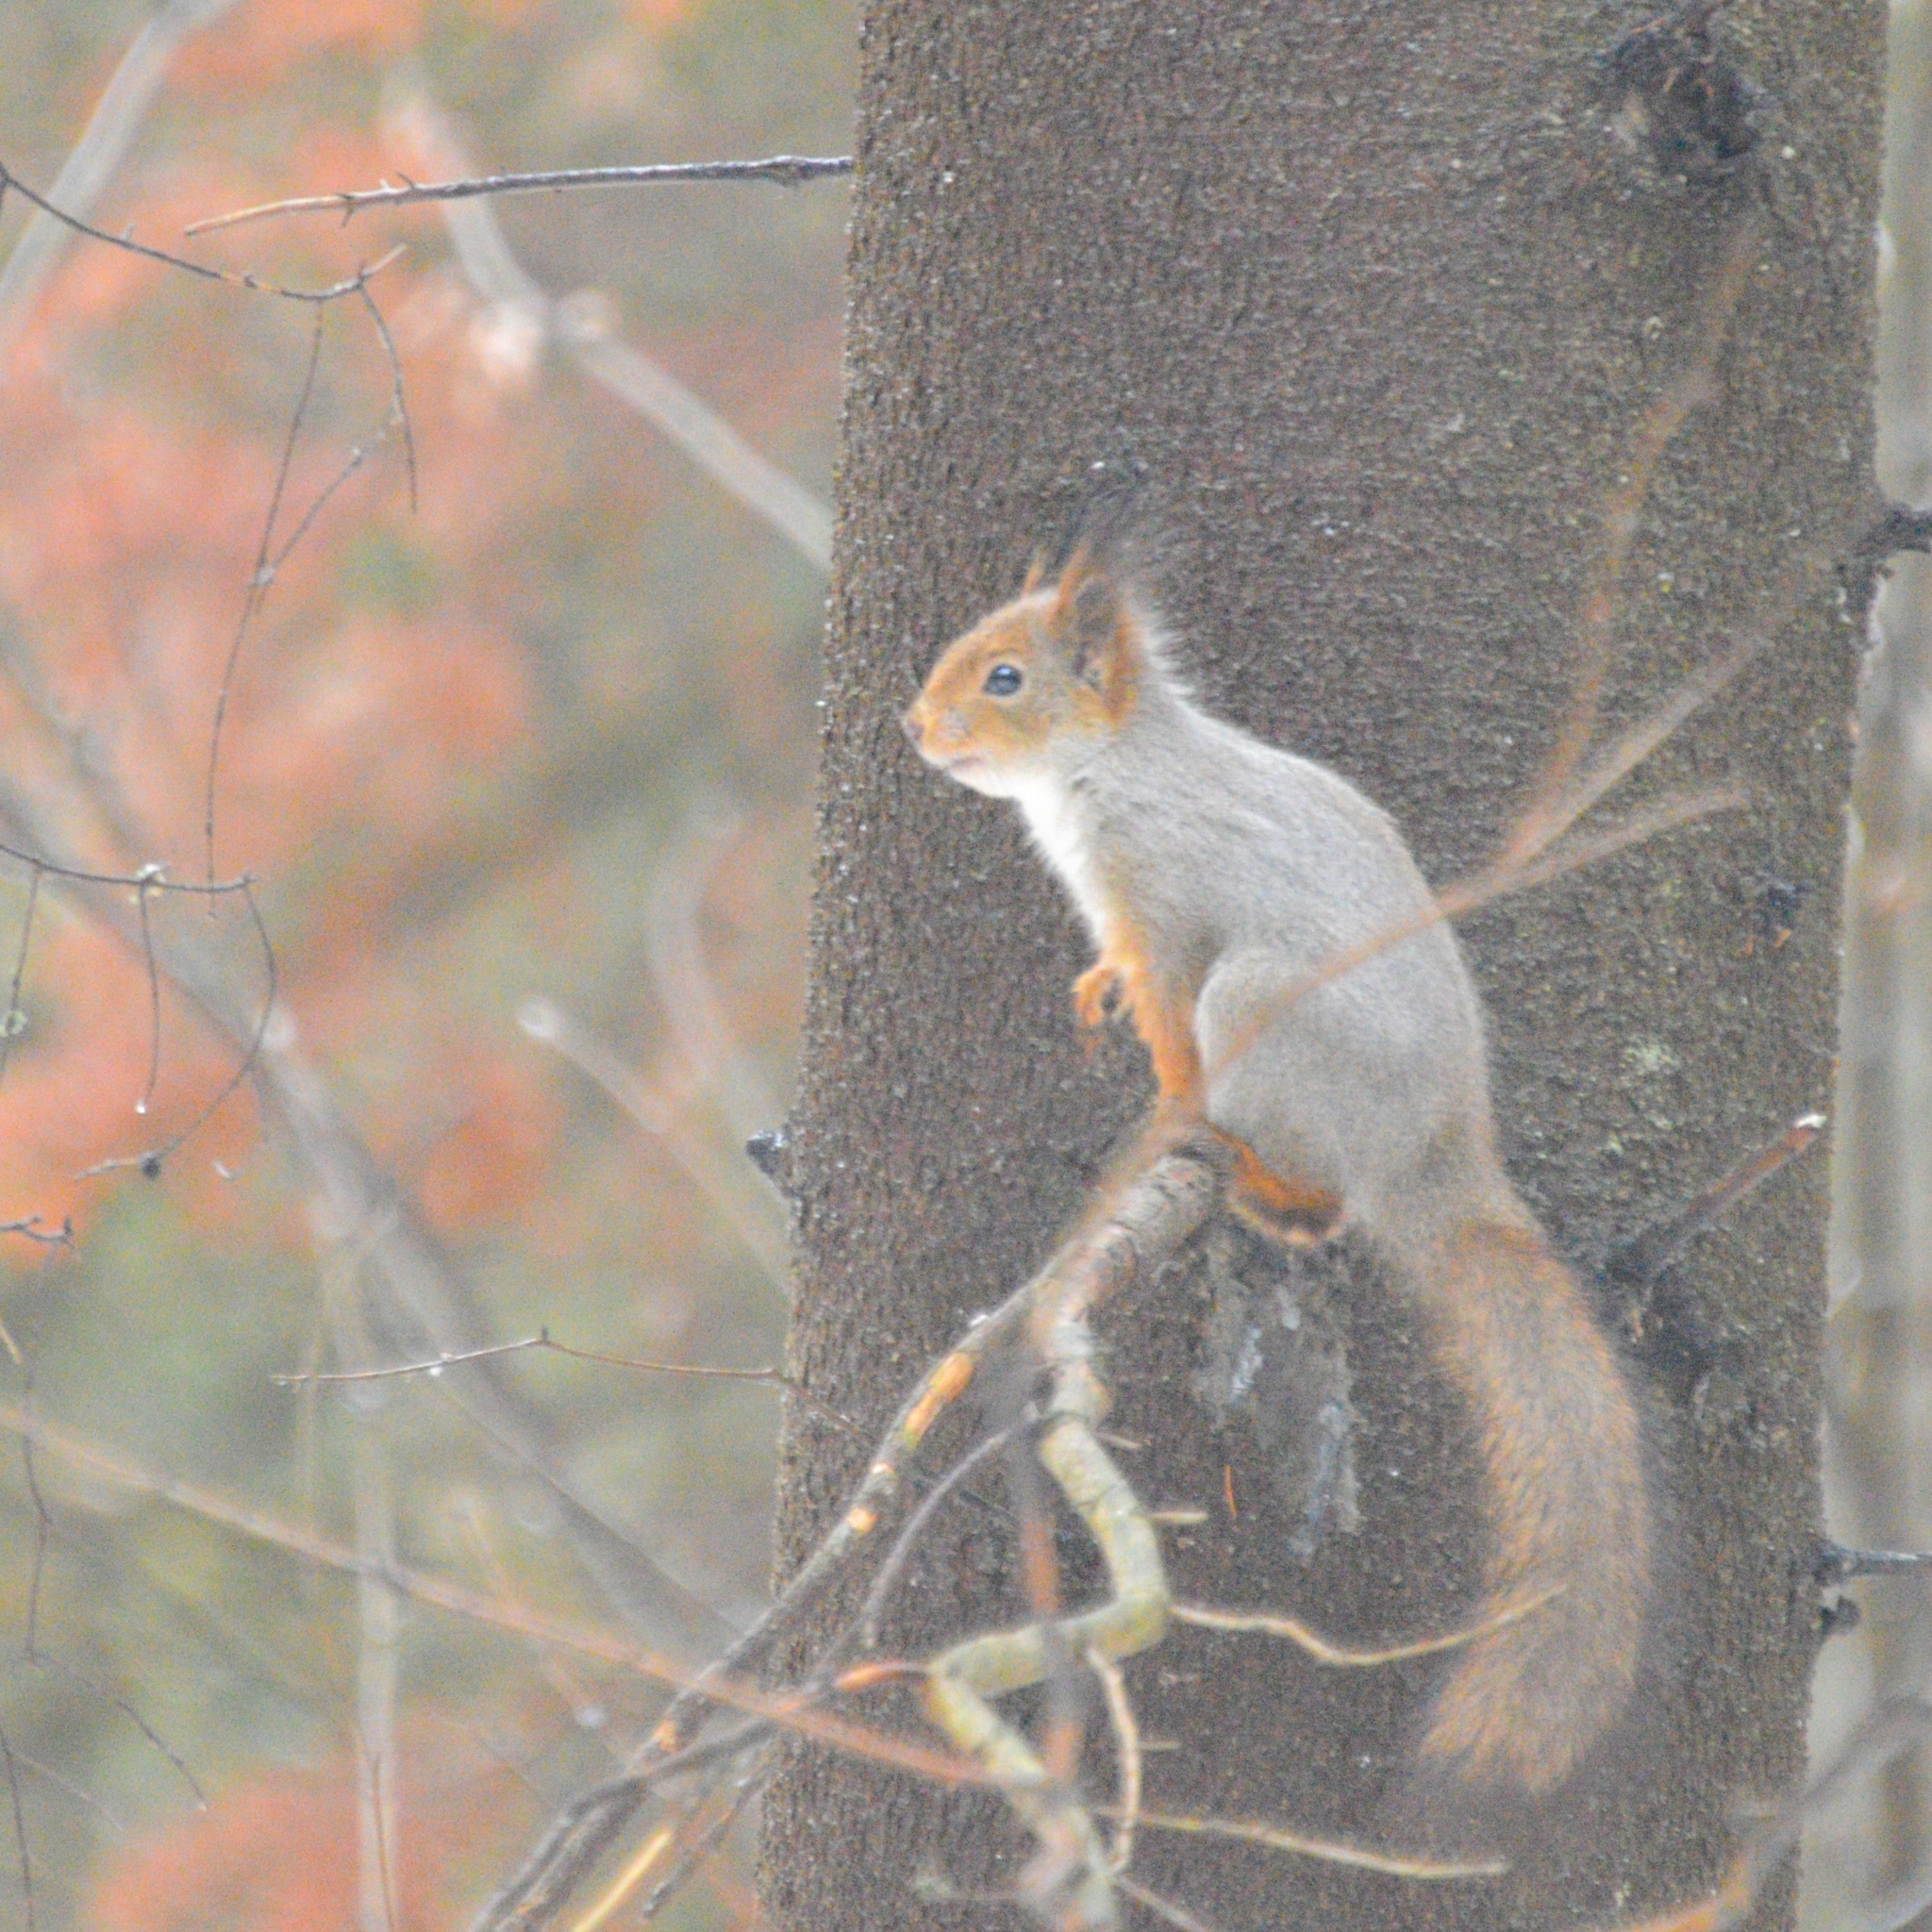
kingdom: Animalia
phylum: Chordata
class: Mammalia
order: Rodentia
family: Sciuridae
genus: Sciurus
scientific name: Sciurus vulgaris
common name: Eurasian red squirrel
